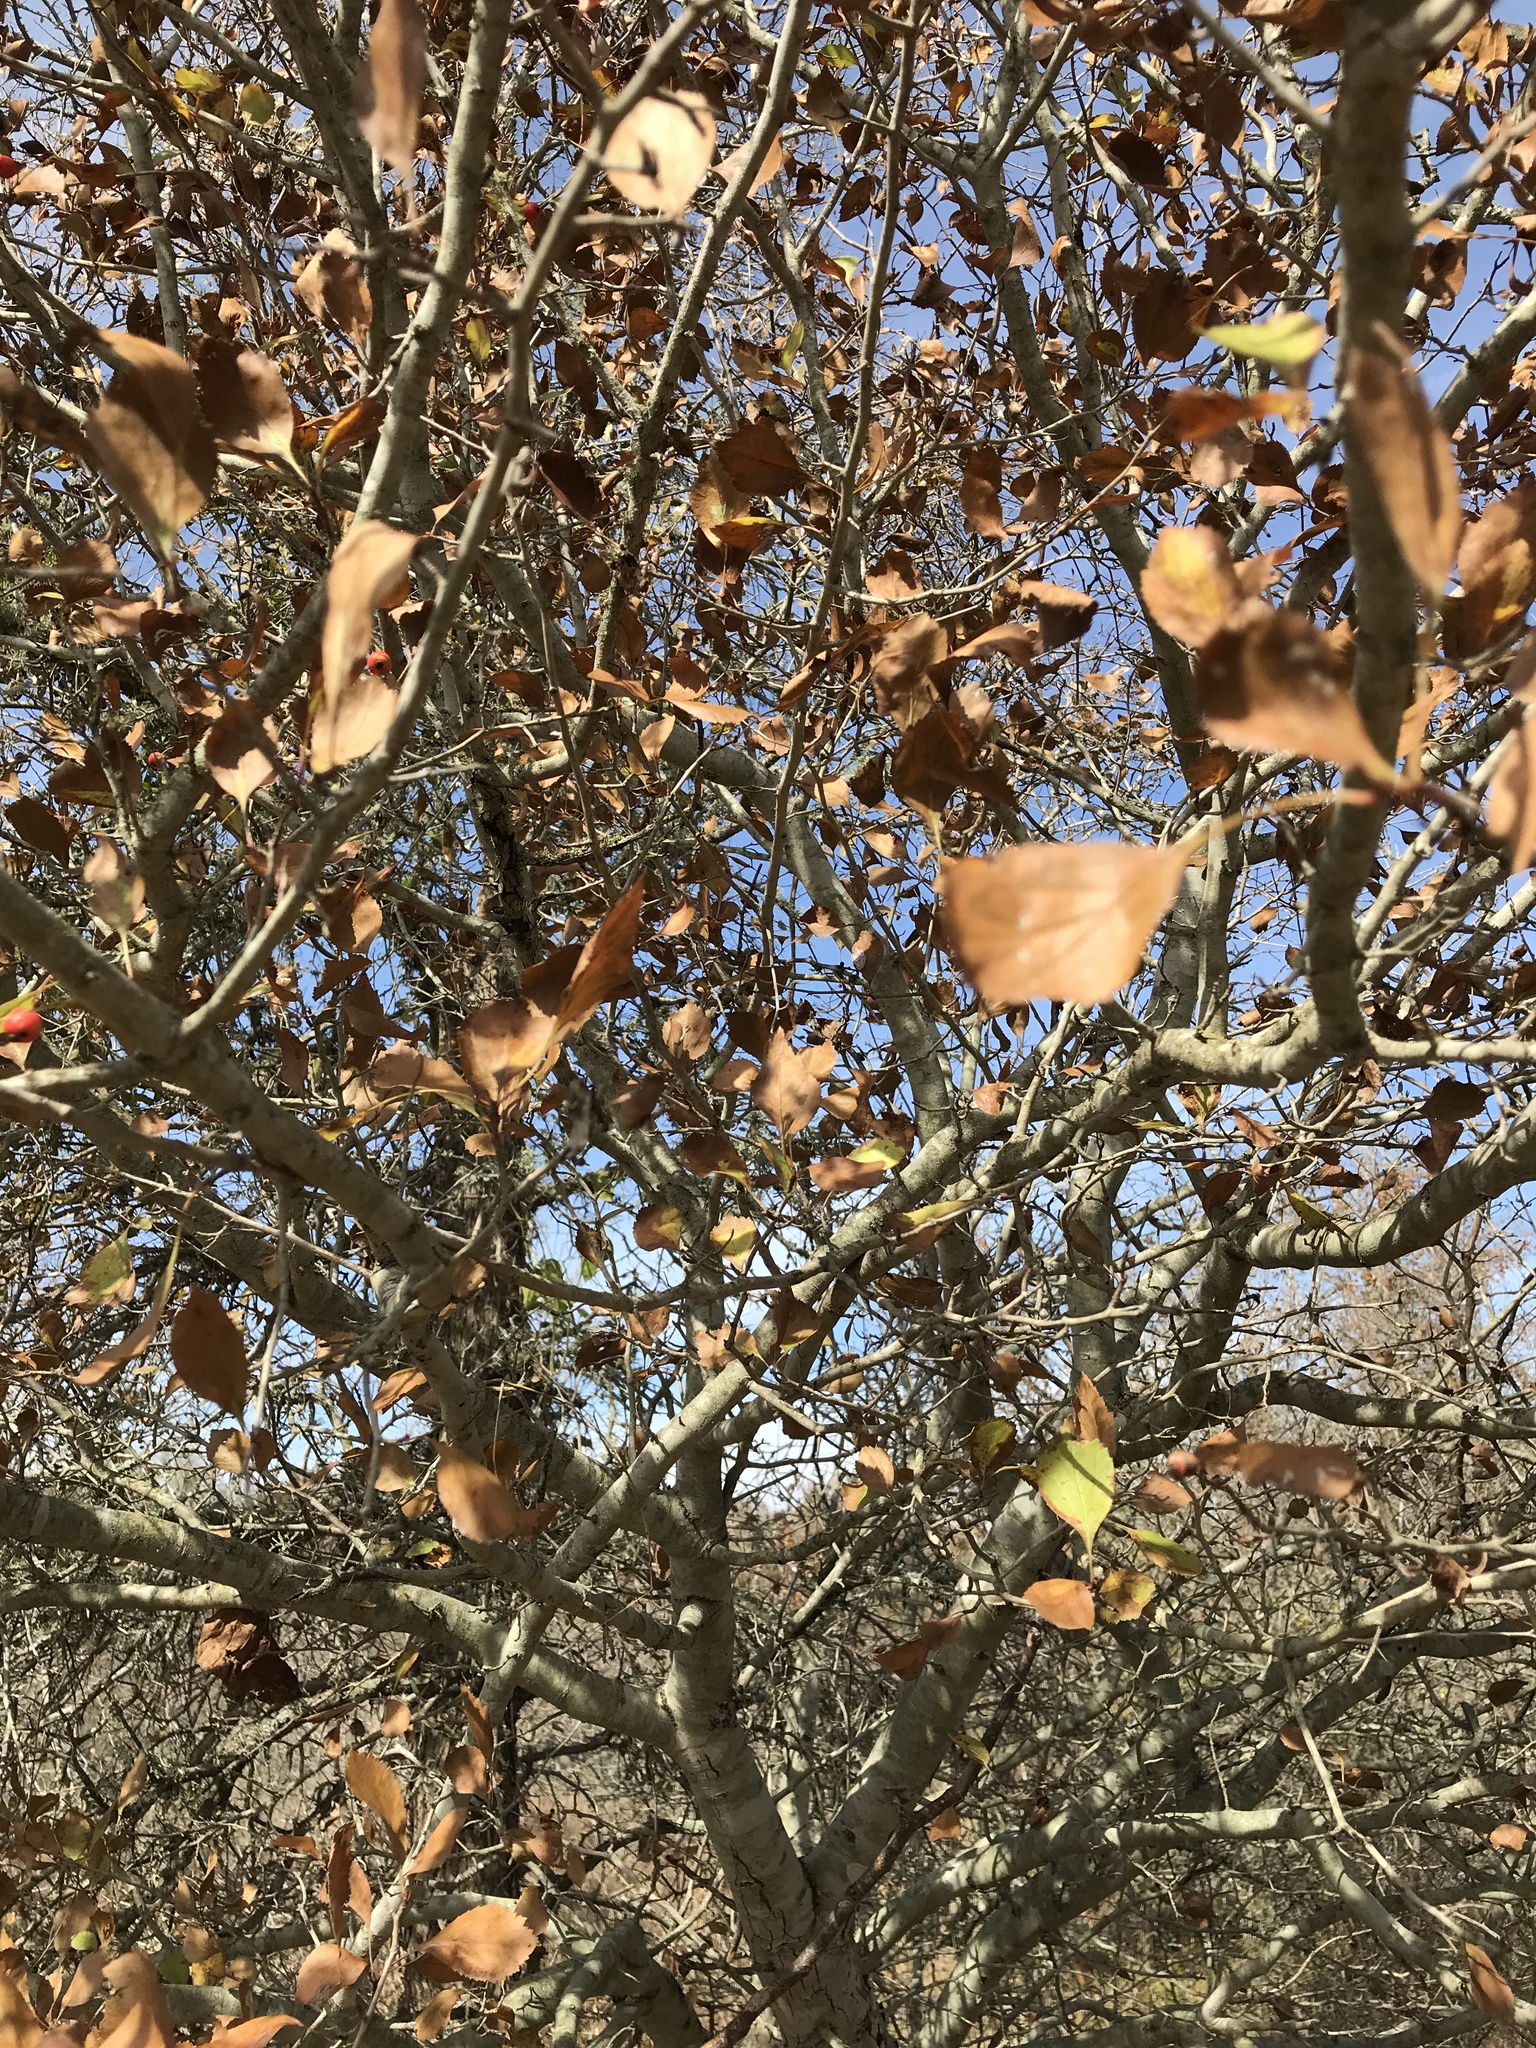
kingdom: Plantae
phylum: Tracheophyta
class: Magnoliopsida
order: Rosales
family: Rosaceae
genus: Crataegus
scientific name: Crataegus viridis
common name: Southernthorn
